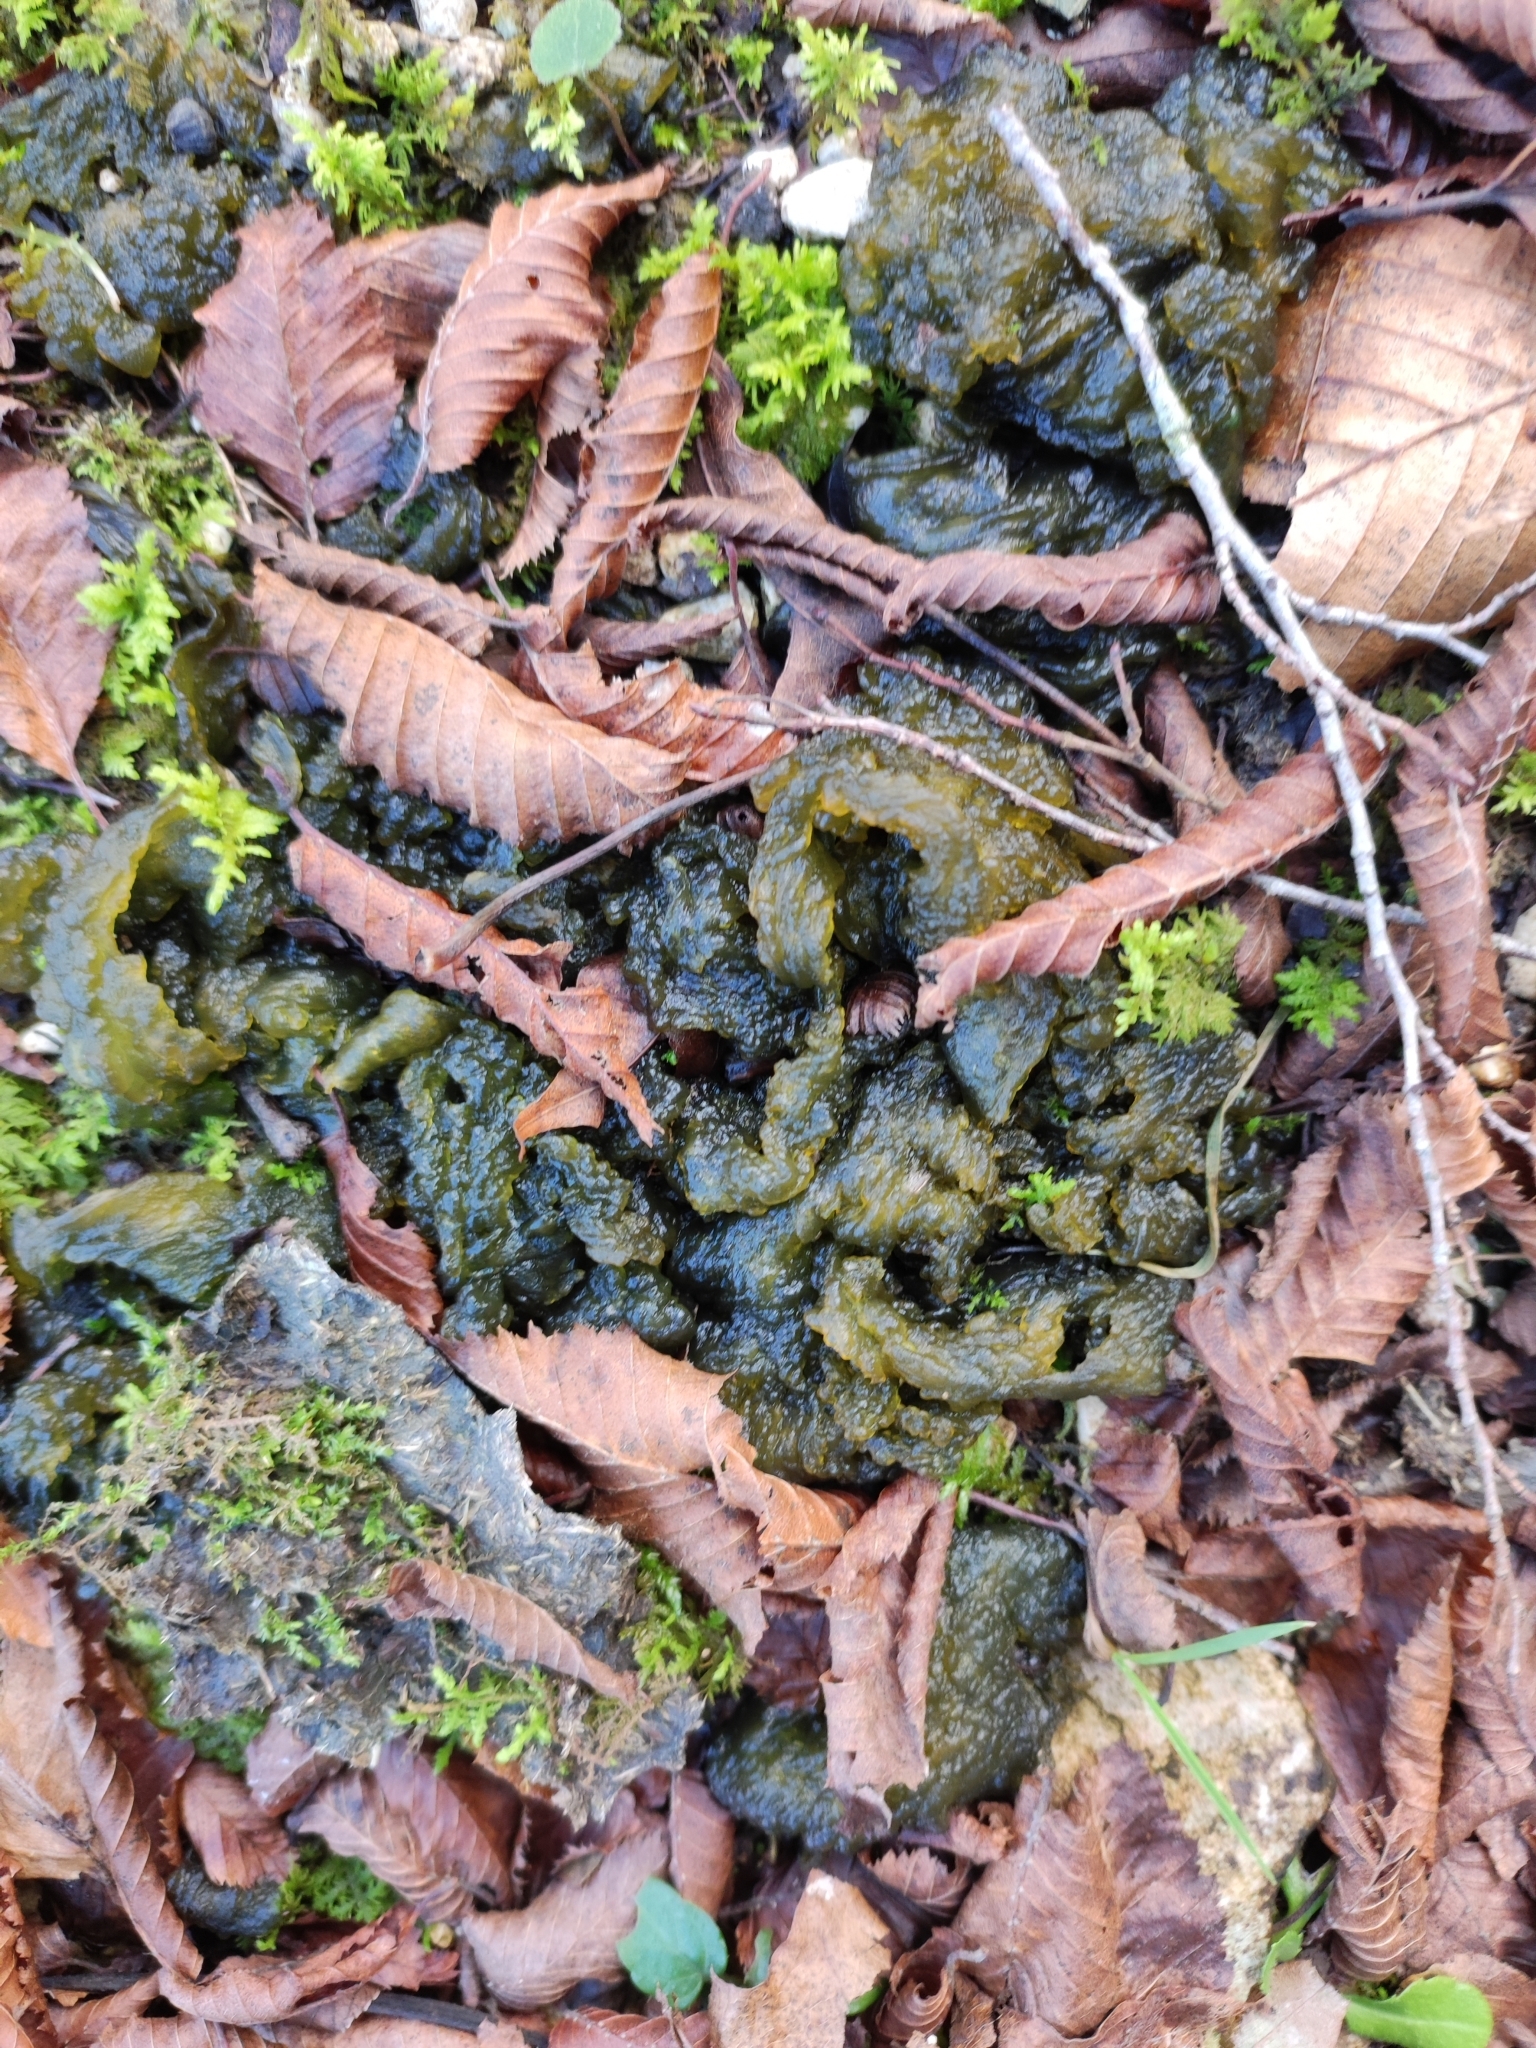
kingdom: Bacteria
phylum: Cyanobacteria
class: Cyanobacteriia
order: Cyanobacteriales
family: Nostocaceae
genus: Nostoc
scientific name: Nostoc commune
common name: Star jelly
